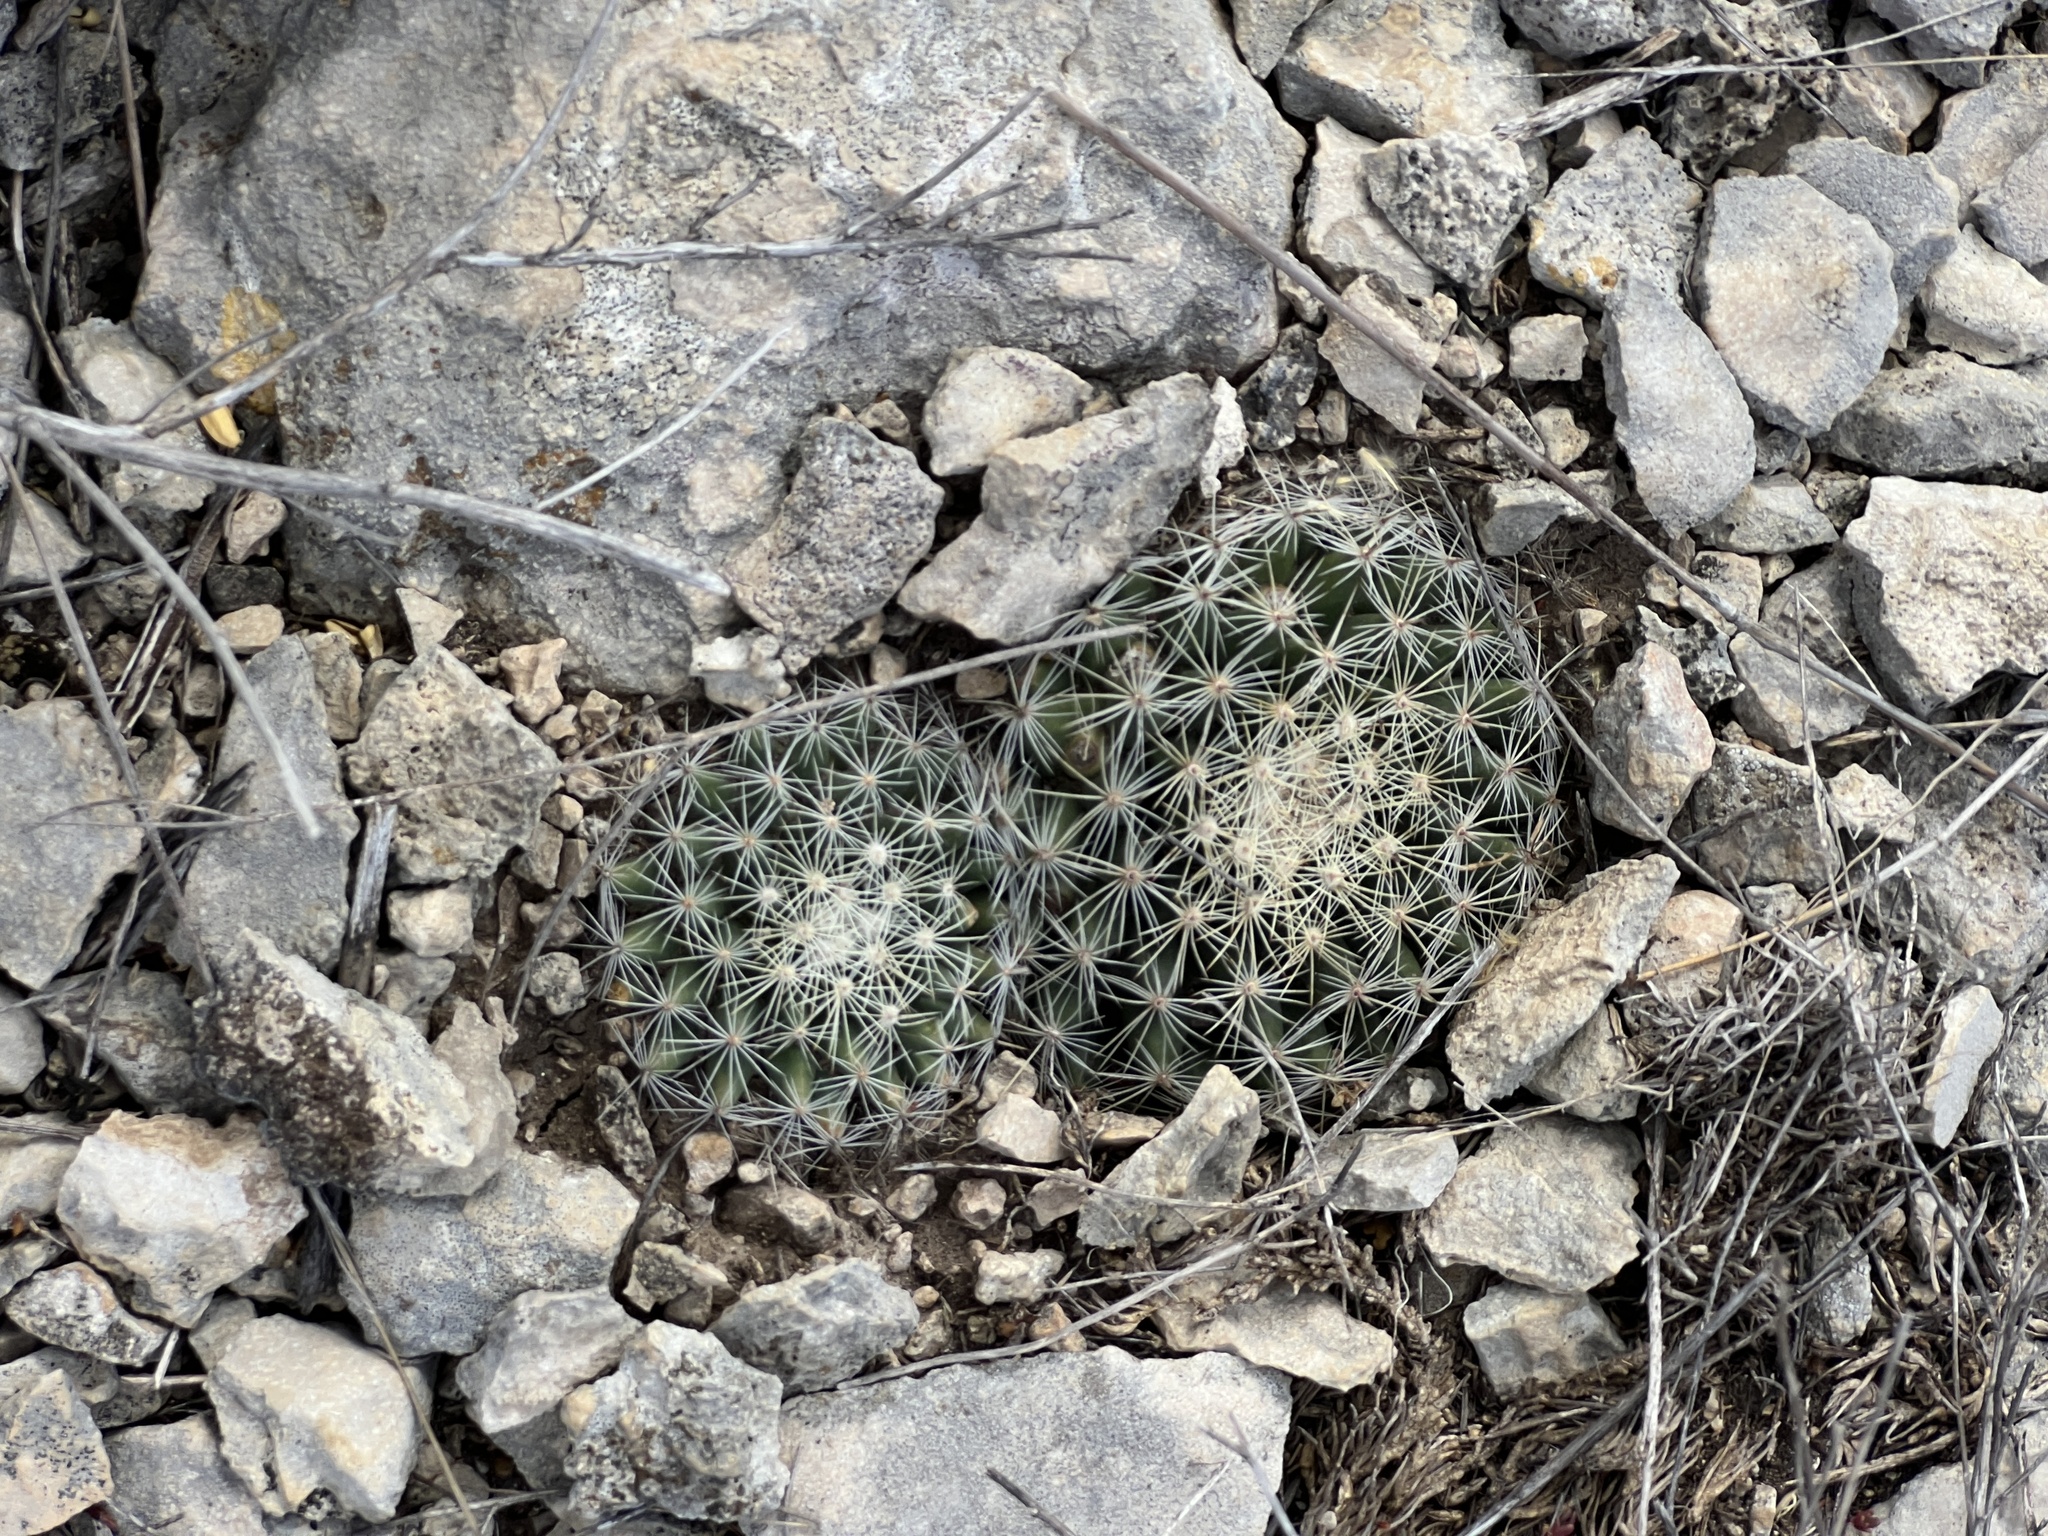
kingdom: Plantae
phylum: Tracheophyta
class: Magnoliopsida
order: Caryophyllales
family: Cactaceae
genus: Mammillaria
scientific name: Mammillaria heyderi
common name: Little nipple cactus
